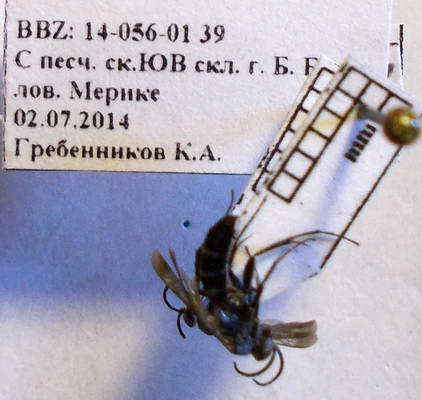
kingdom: Animalia
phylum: Arthropoda
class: Insecta
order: Hymenoptera
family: Pompilidae
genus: Aporinellus
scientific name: Aporinellus sexmaculatus
